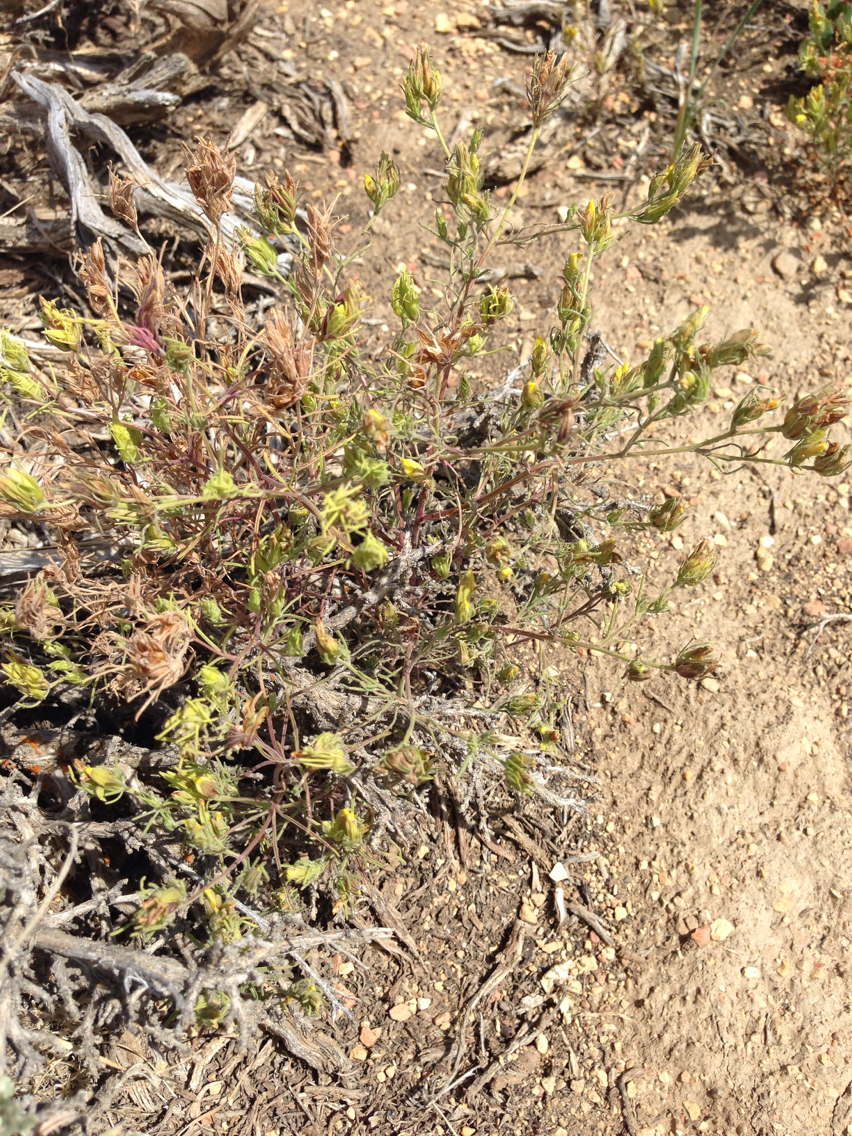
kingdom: Plantae
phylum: Tracheophyta
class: Magnoliopsida
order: Lamiales
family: Orobanchaceae
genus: Cordylanthus
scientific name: Cordylanthus ramosus
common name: Much-branched bird's-beak
